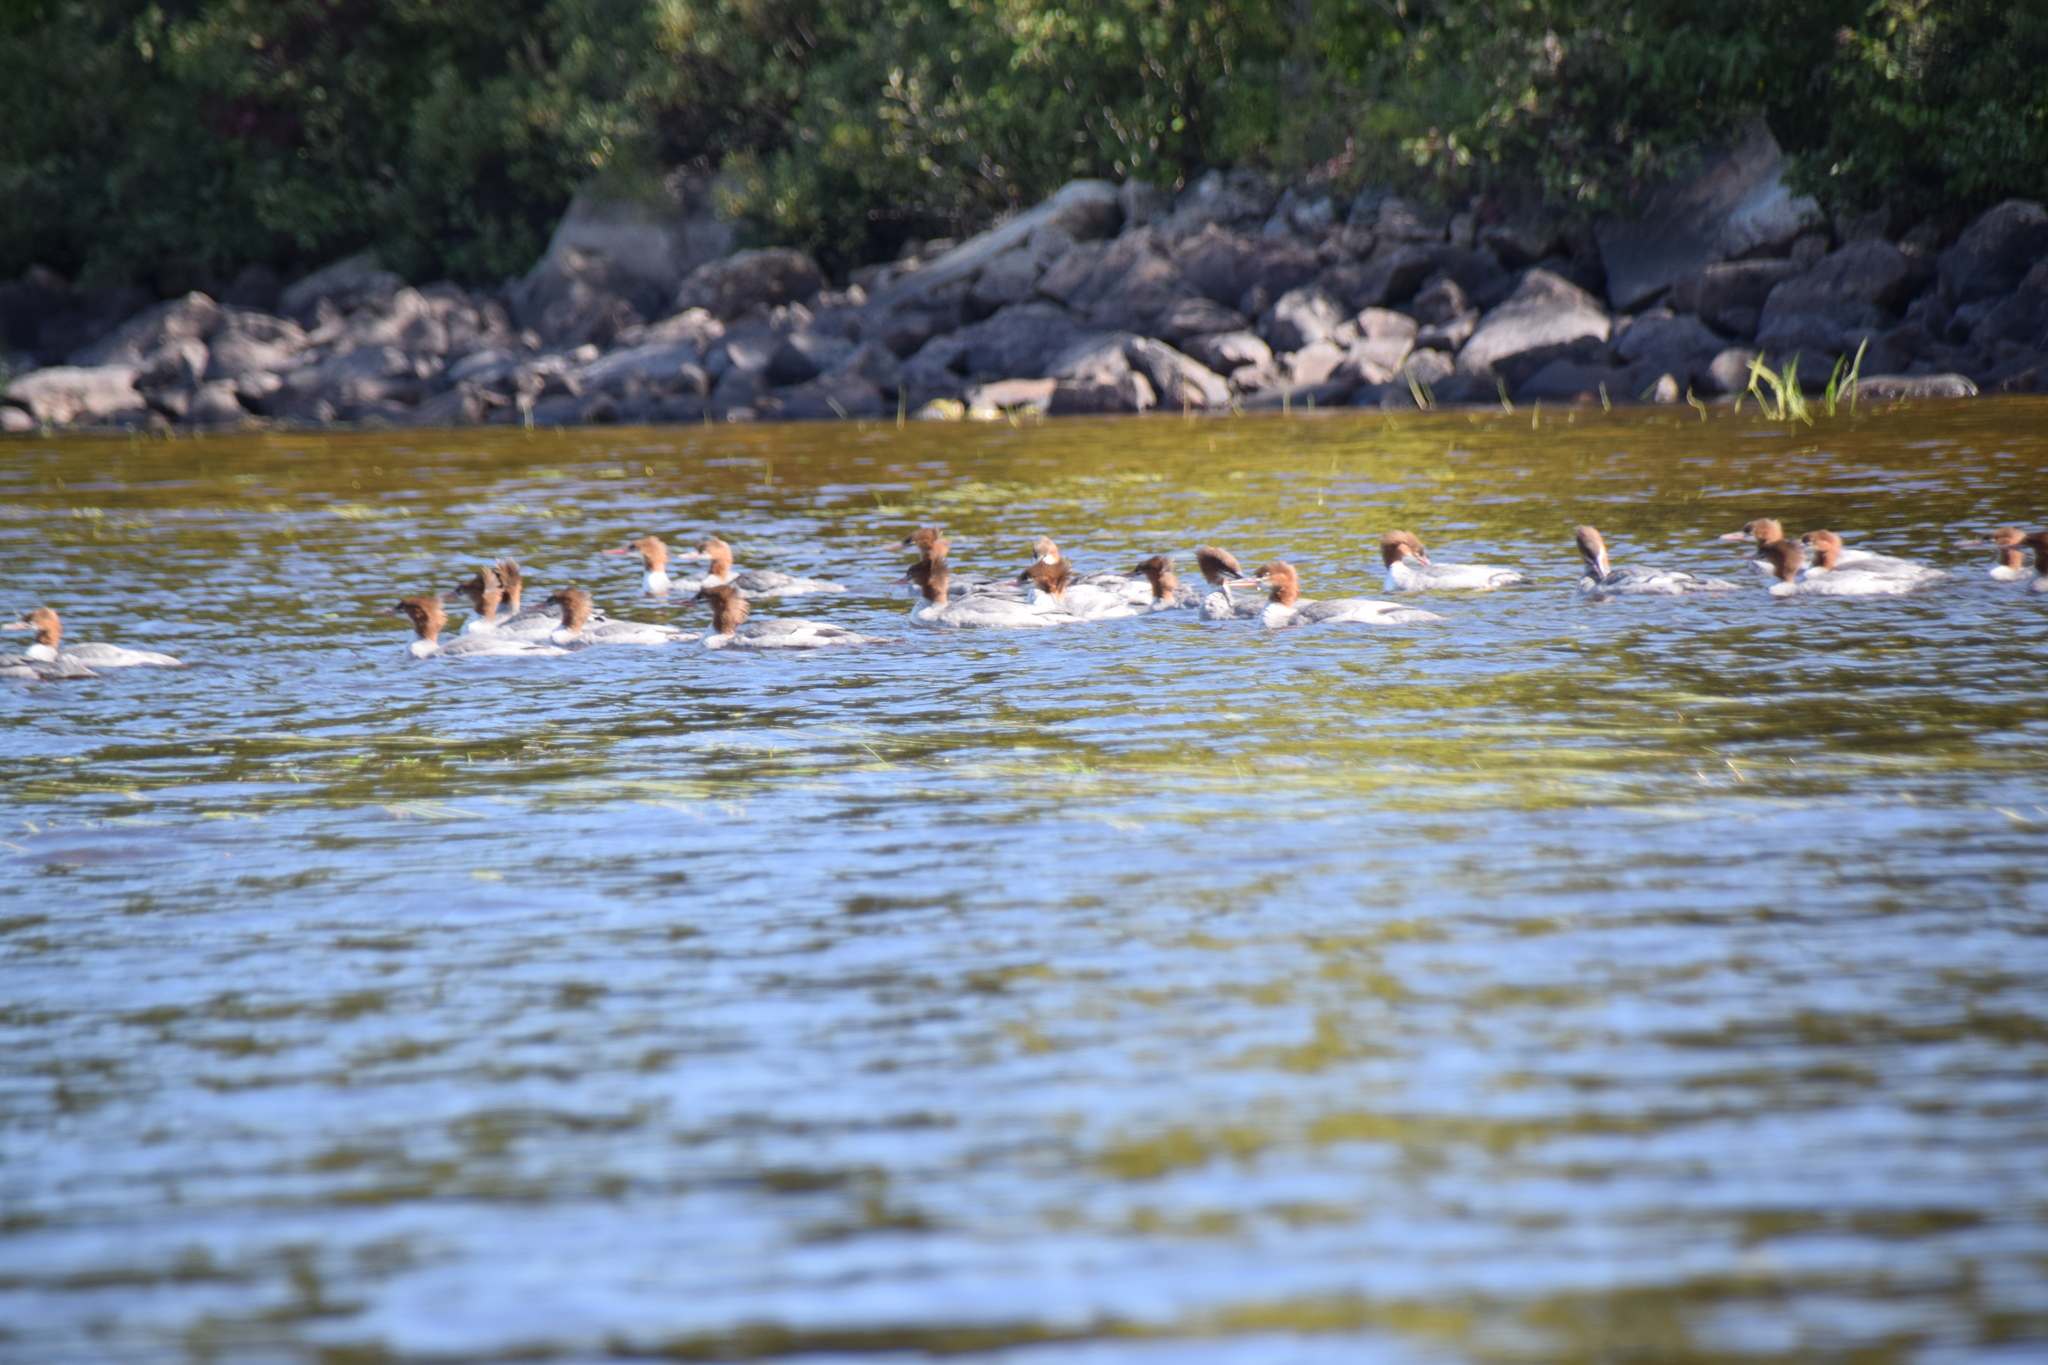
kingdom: Animalia
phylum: Chordata
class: Aves
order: Anseriformes
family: Anatidae
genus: Mergus
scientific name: Mergus merganser
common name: Common merganser
